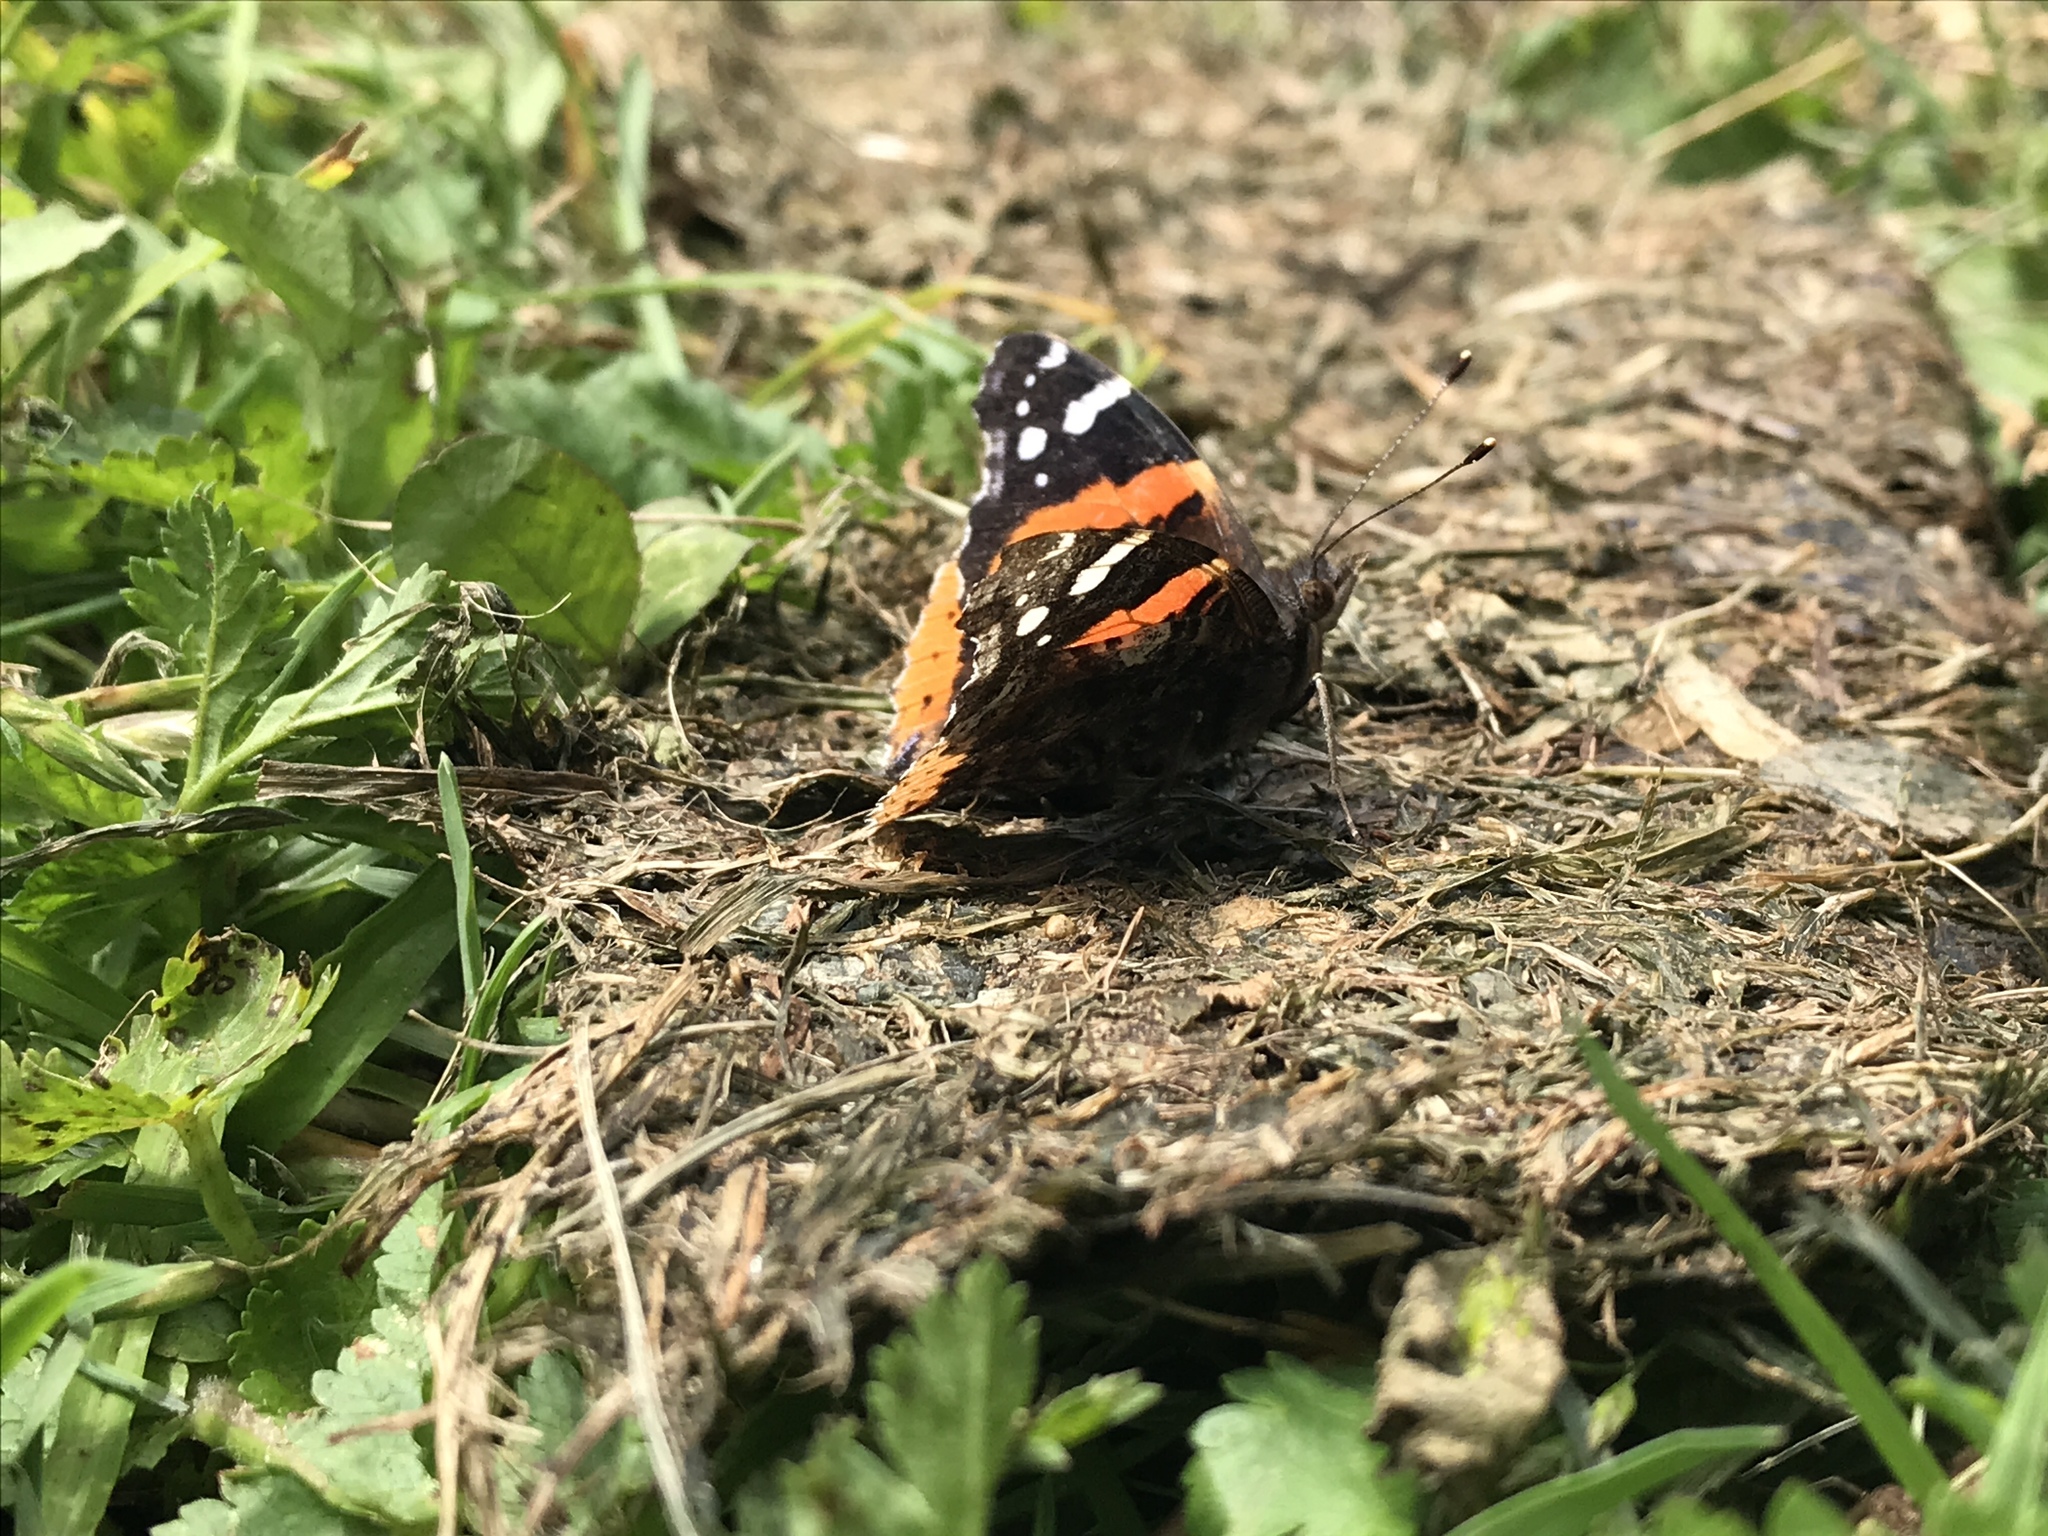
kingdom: Animalia
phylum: Arthropoda
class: Insecta
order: Lepidoptera
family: Nymphalidae
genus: Vanessa
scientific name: Vanessa atalanta
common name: Red admiral
